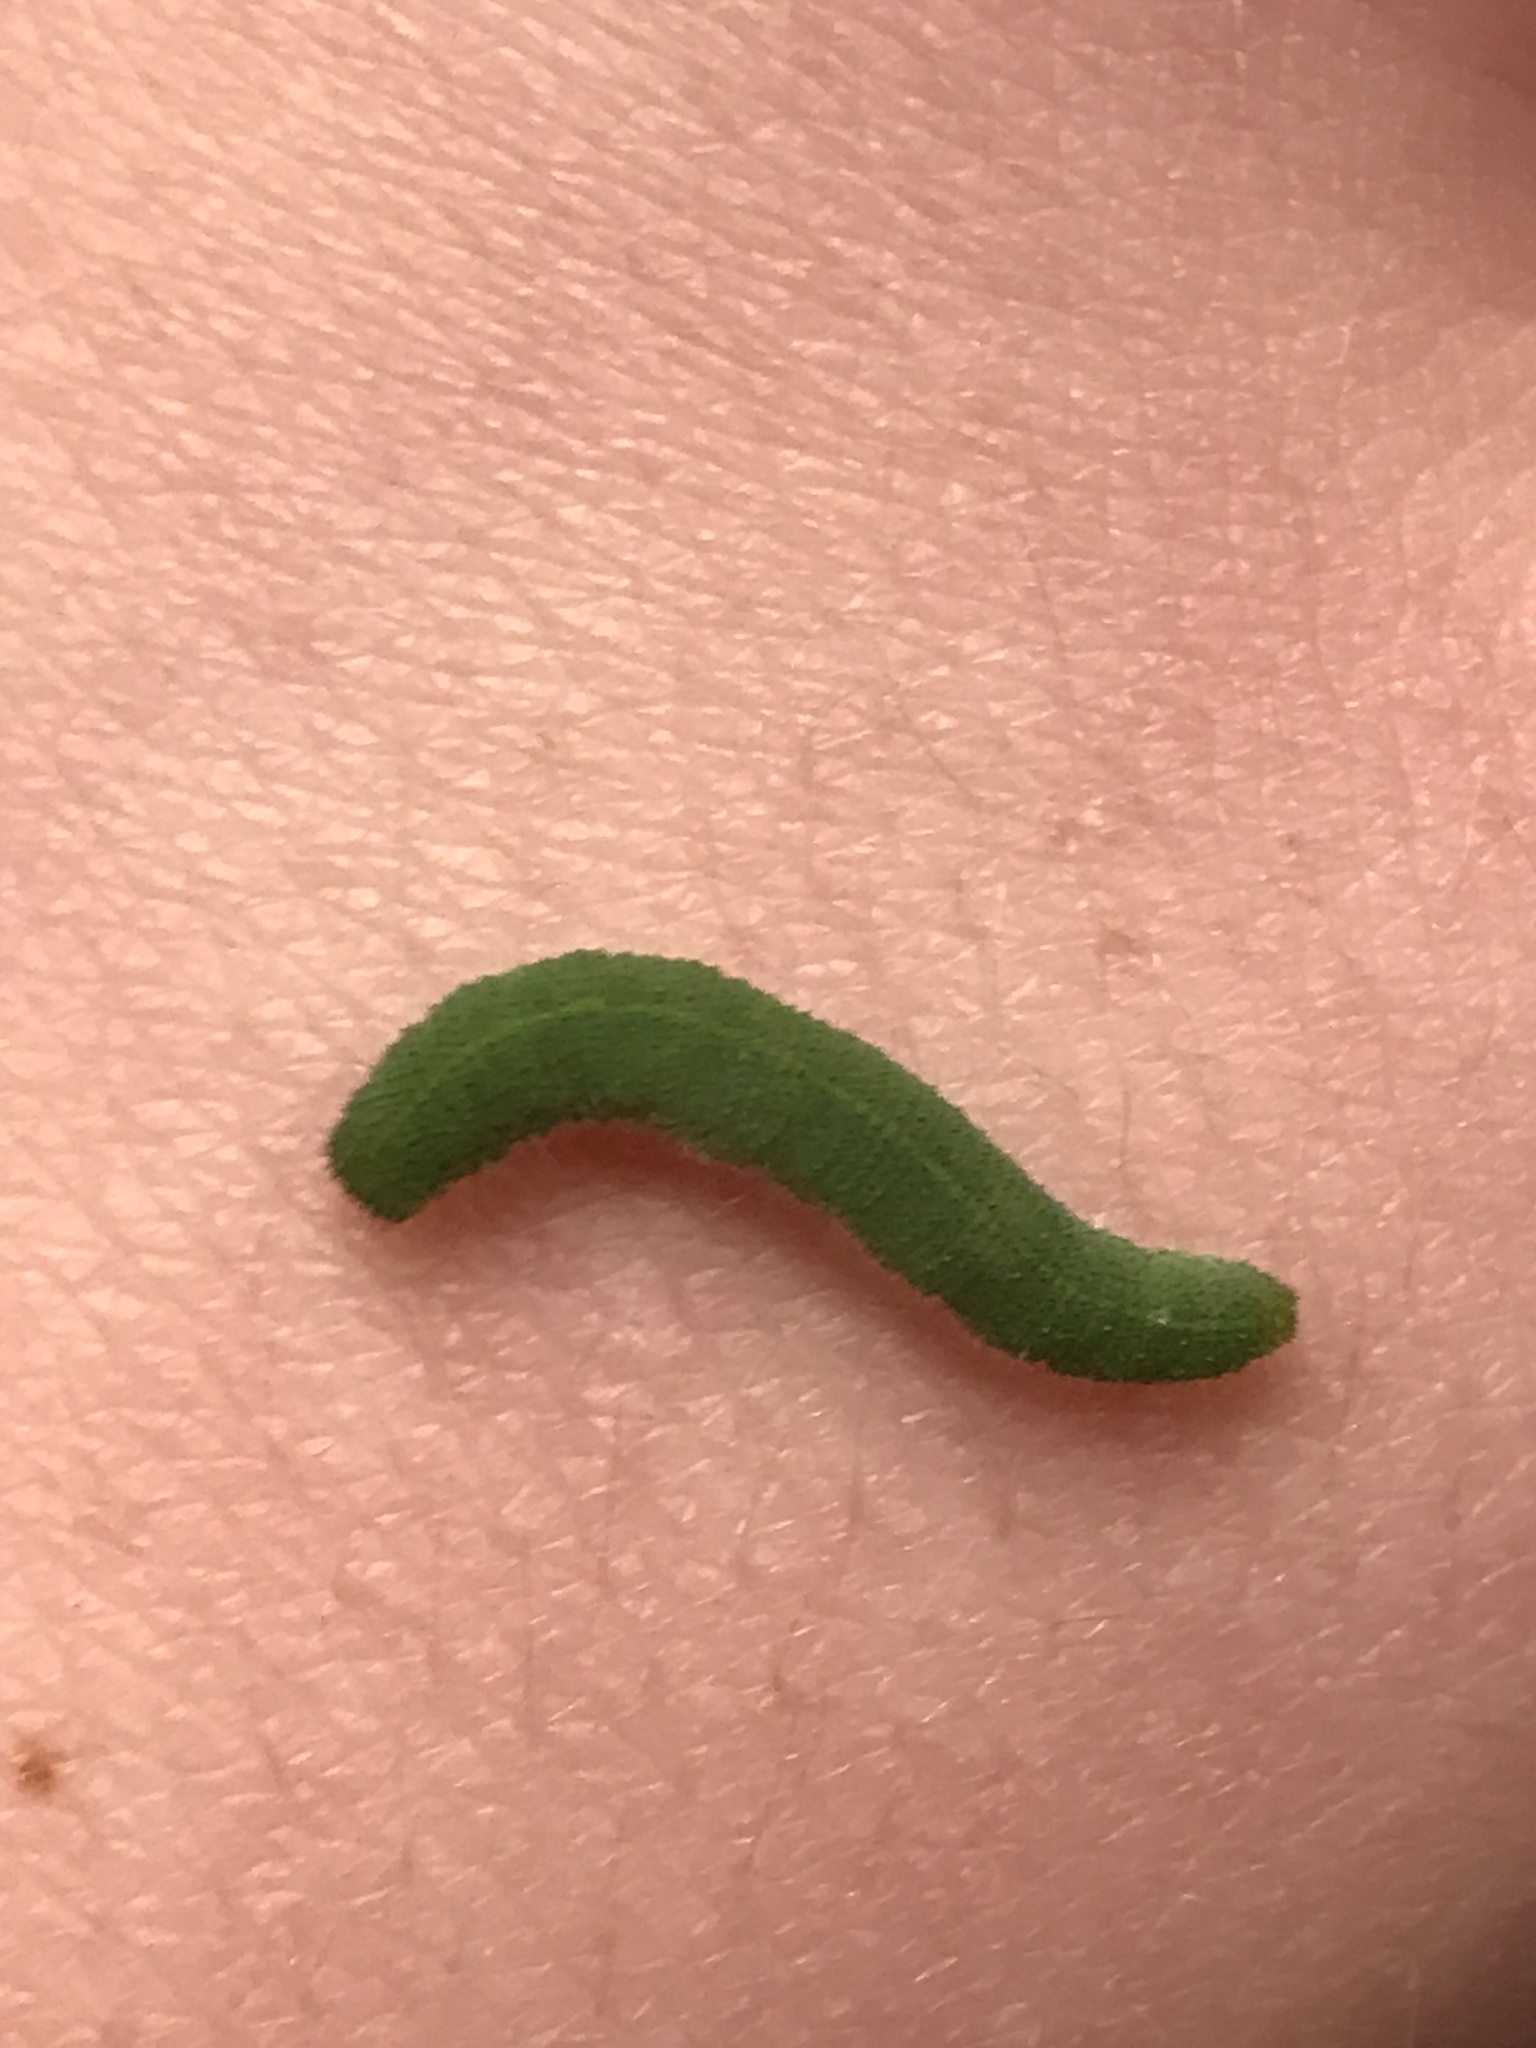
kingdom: Animalia
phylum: Arthropoda
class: Insecta
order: Lepidoptera
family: Pieridae
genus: Pieris
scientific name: Pieris rapae
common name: Small white
